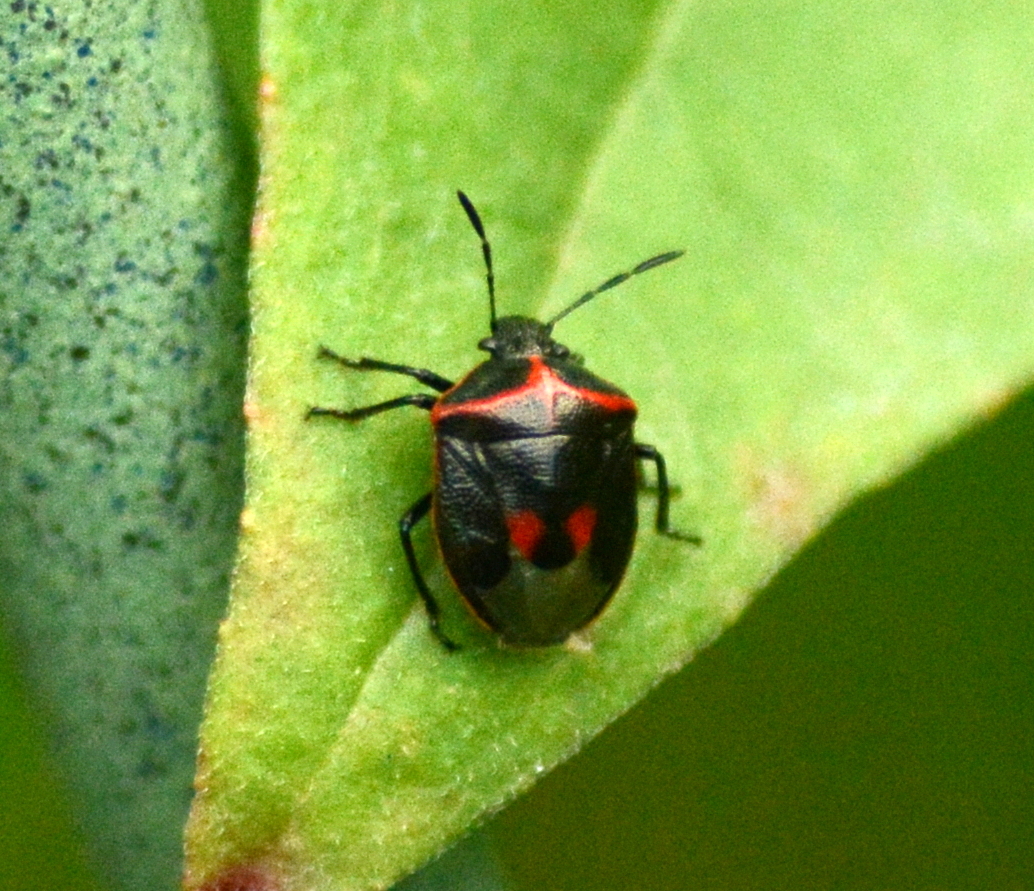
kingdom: Animalia
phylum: Arthropoda
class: Insecta
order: Hemiptera
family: Pentatomidae
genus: Cosmopepla
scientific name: Cosmopepla lintneriana
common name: Twice-stabbed stink bug
